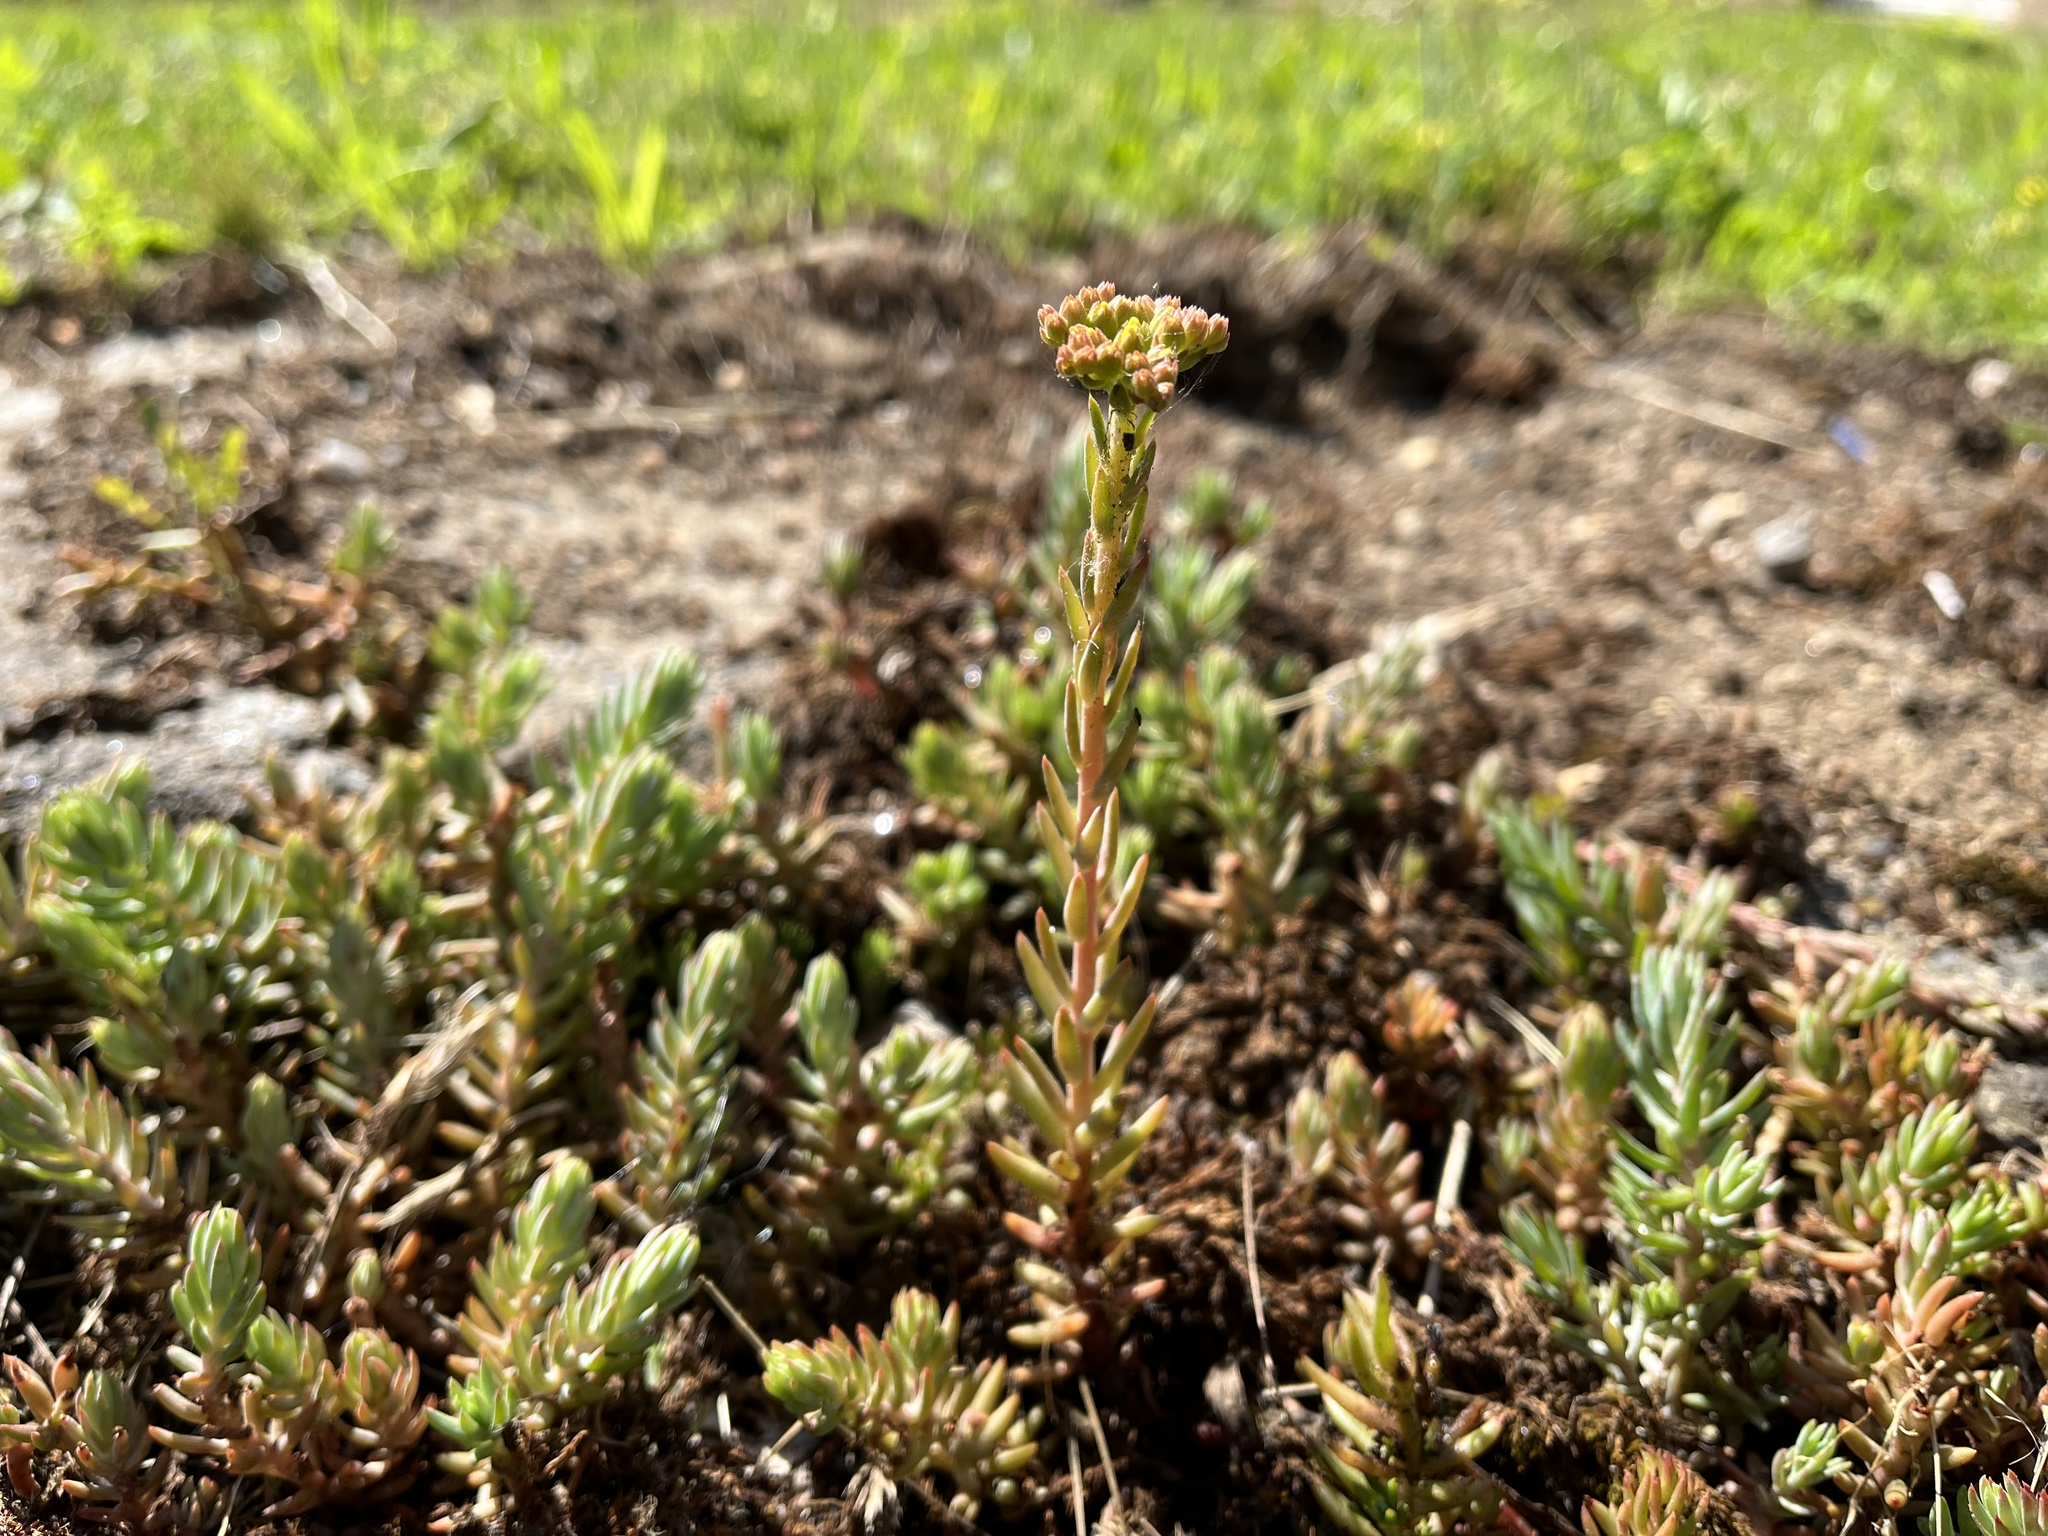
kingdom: Plantae
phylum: Tracheophyta
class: Magnoliopsida
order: Saxifragales
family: Crassulaceae
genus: Petrosedum
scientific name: Petrosedum orientale
